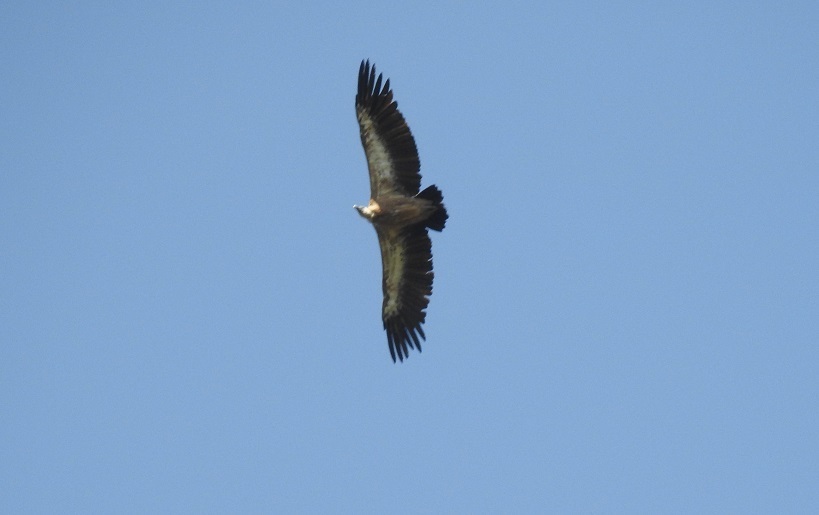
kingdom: Animalia
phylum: Chordata
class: Aves
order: Accipitriformes
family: Accipitridae
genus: Gyps
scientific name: Gyps fulvus
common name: Griffon vulture
